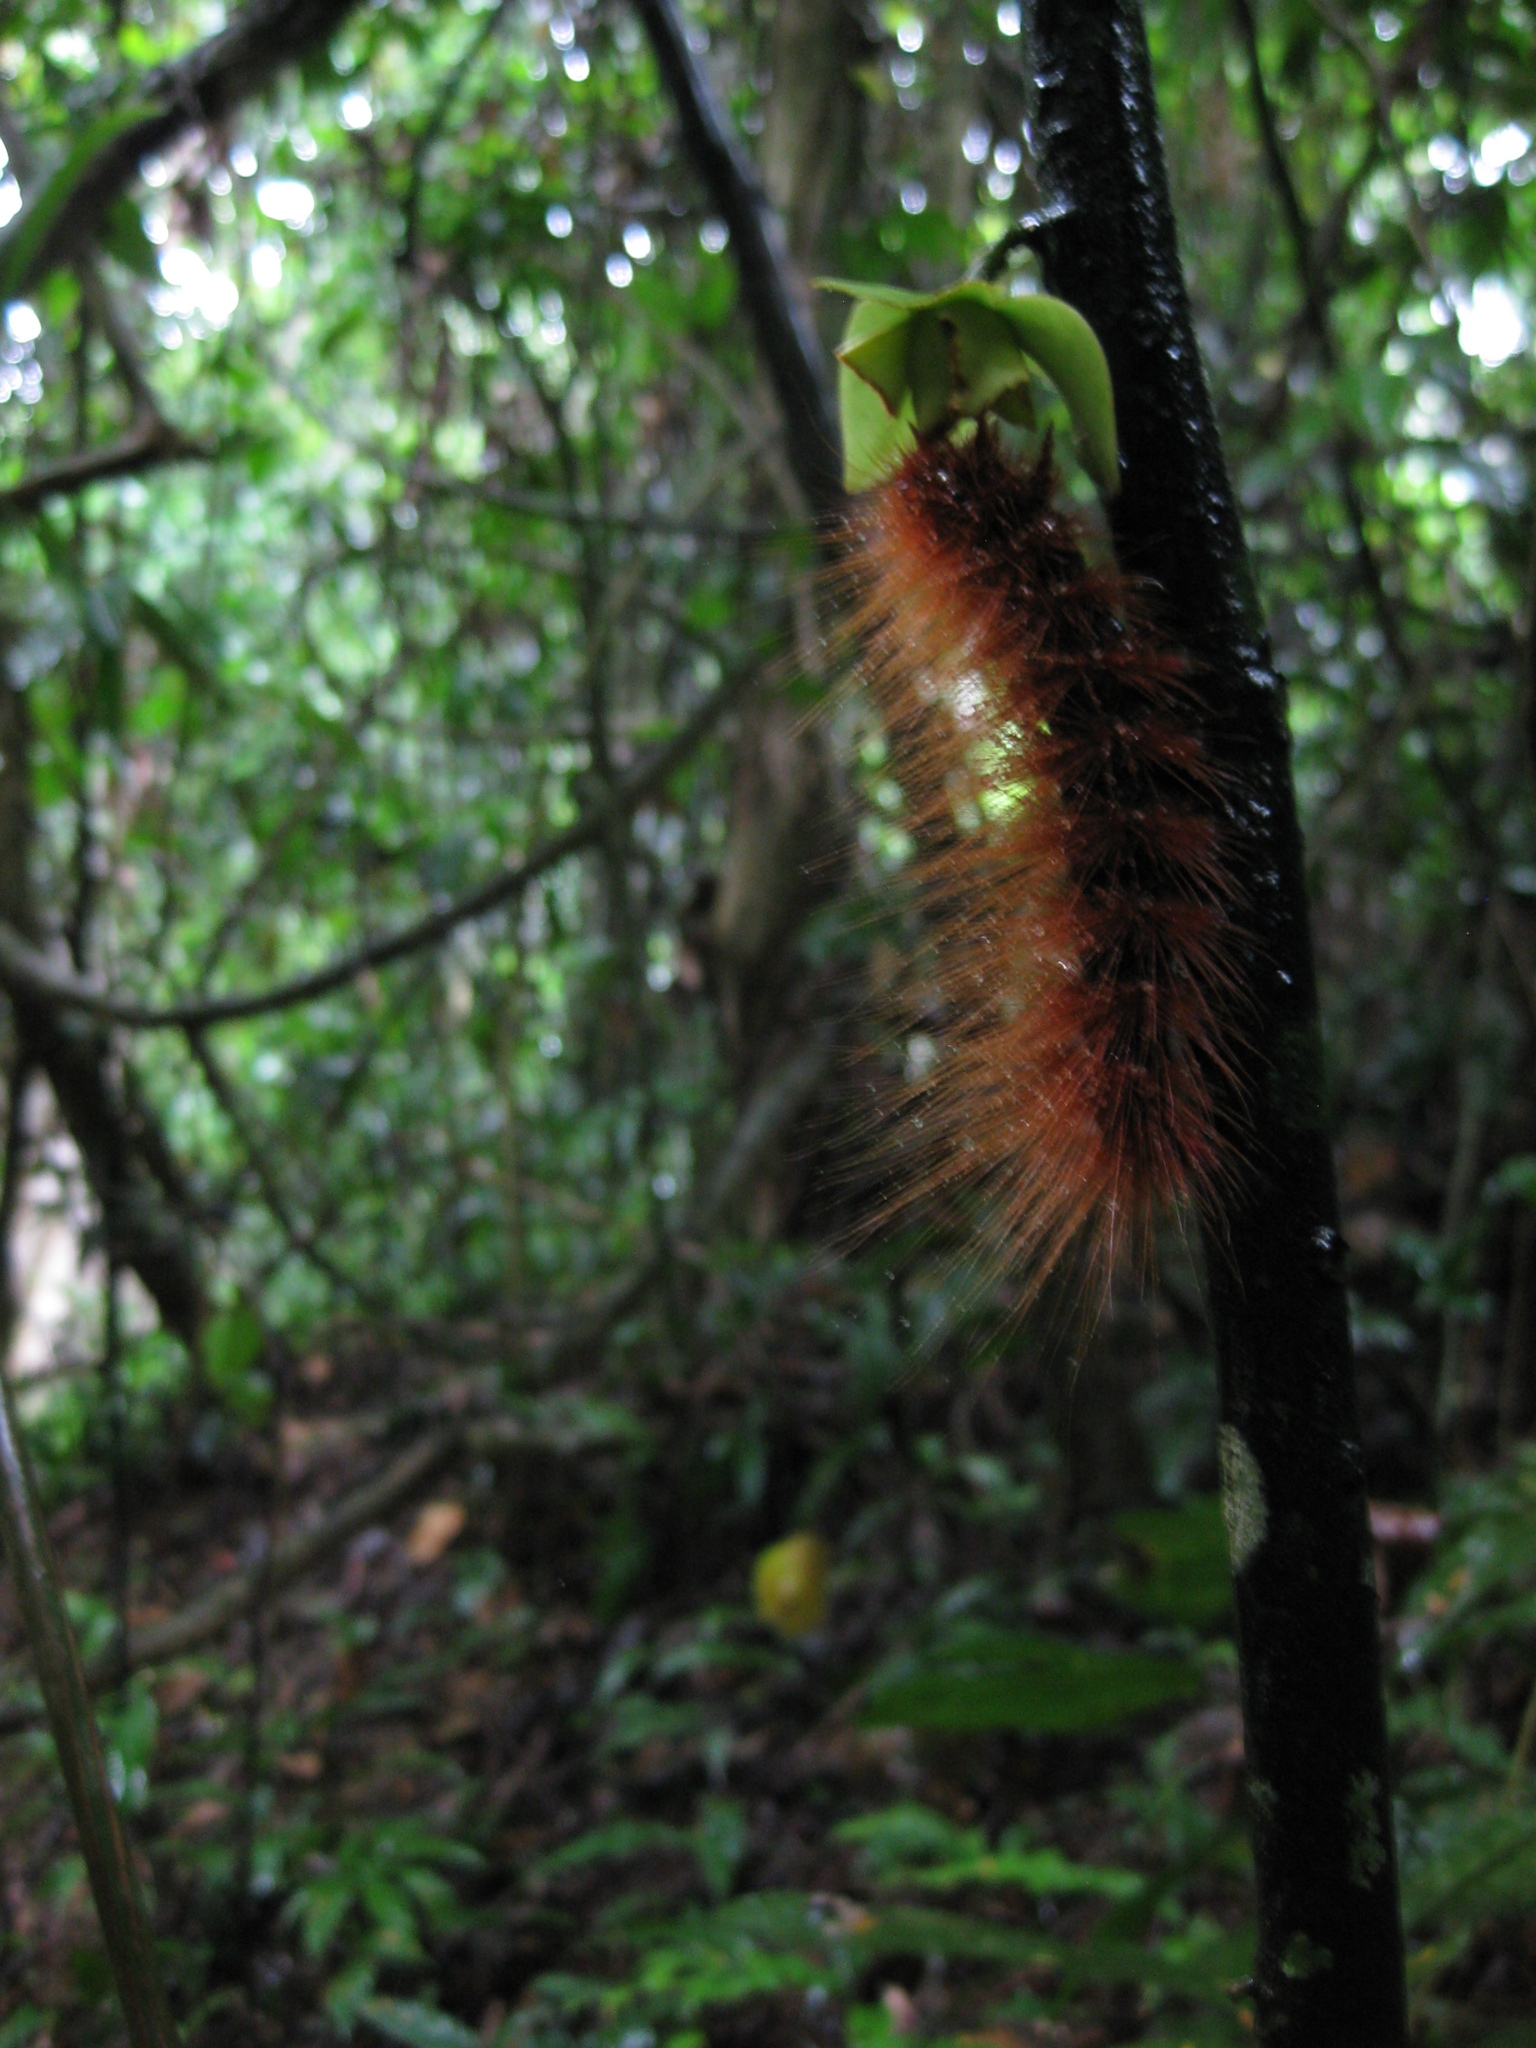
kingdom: Animalia
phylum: Arthropoda
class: Insecta
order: Lepidoptera
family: Erebidae
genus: Areas
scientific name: Areas galactina
